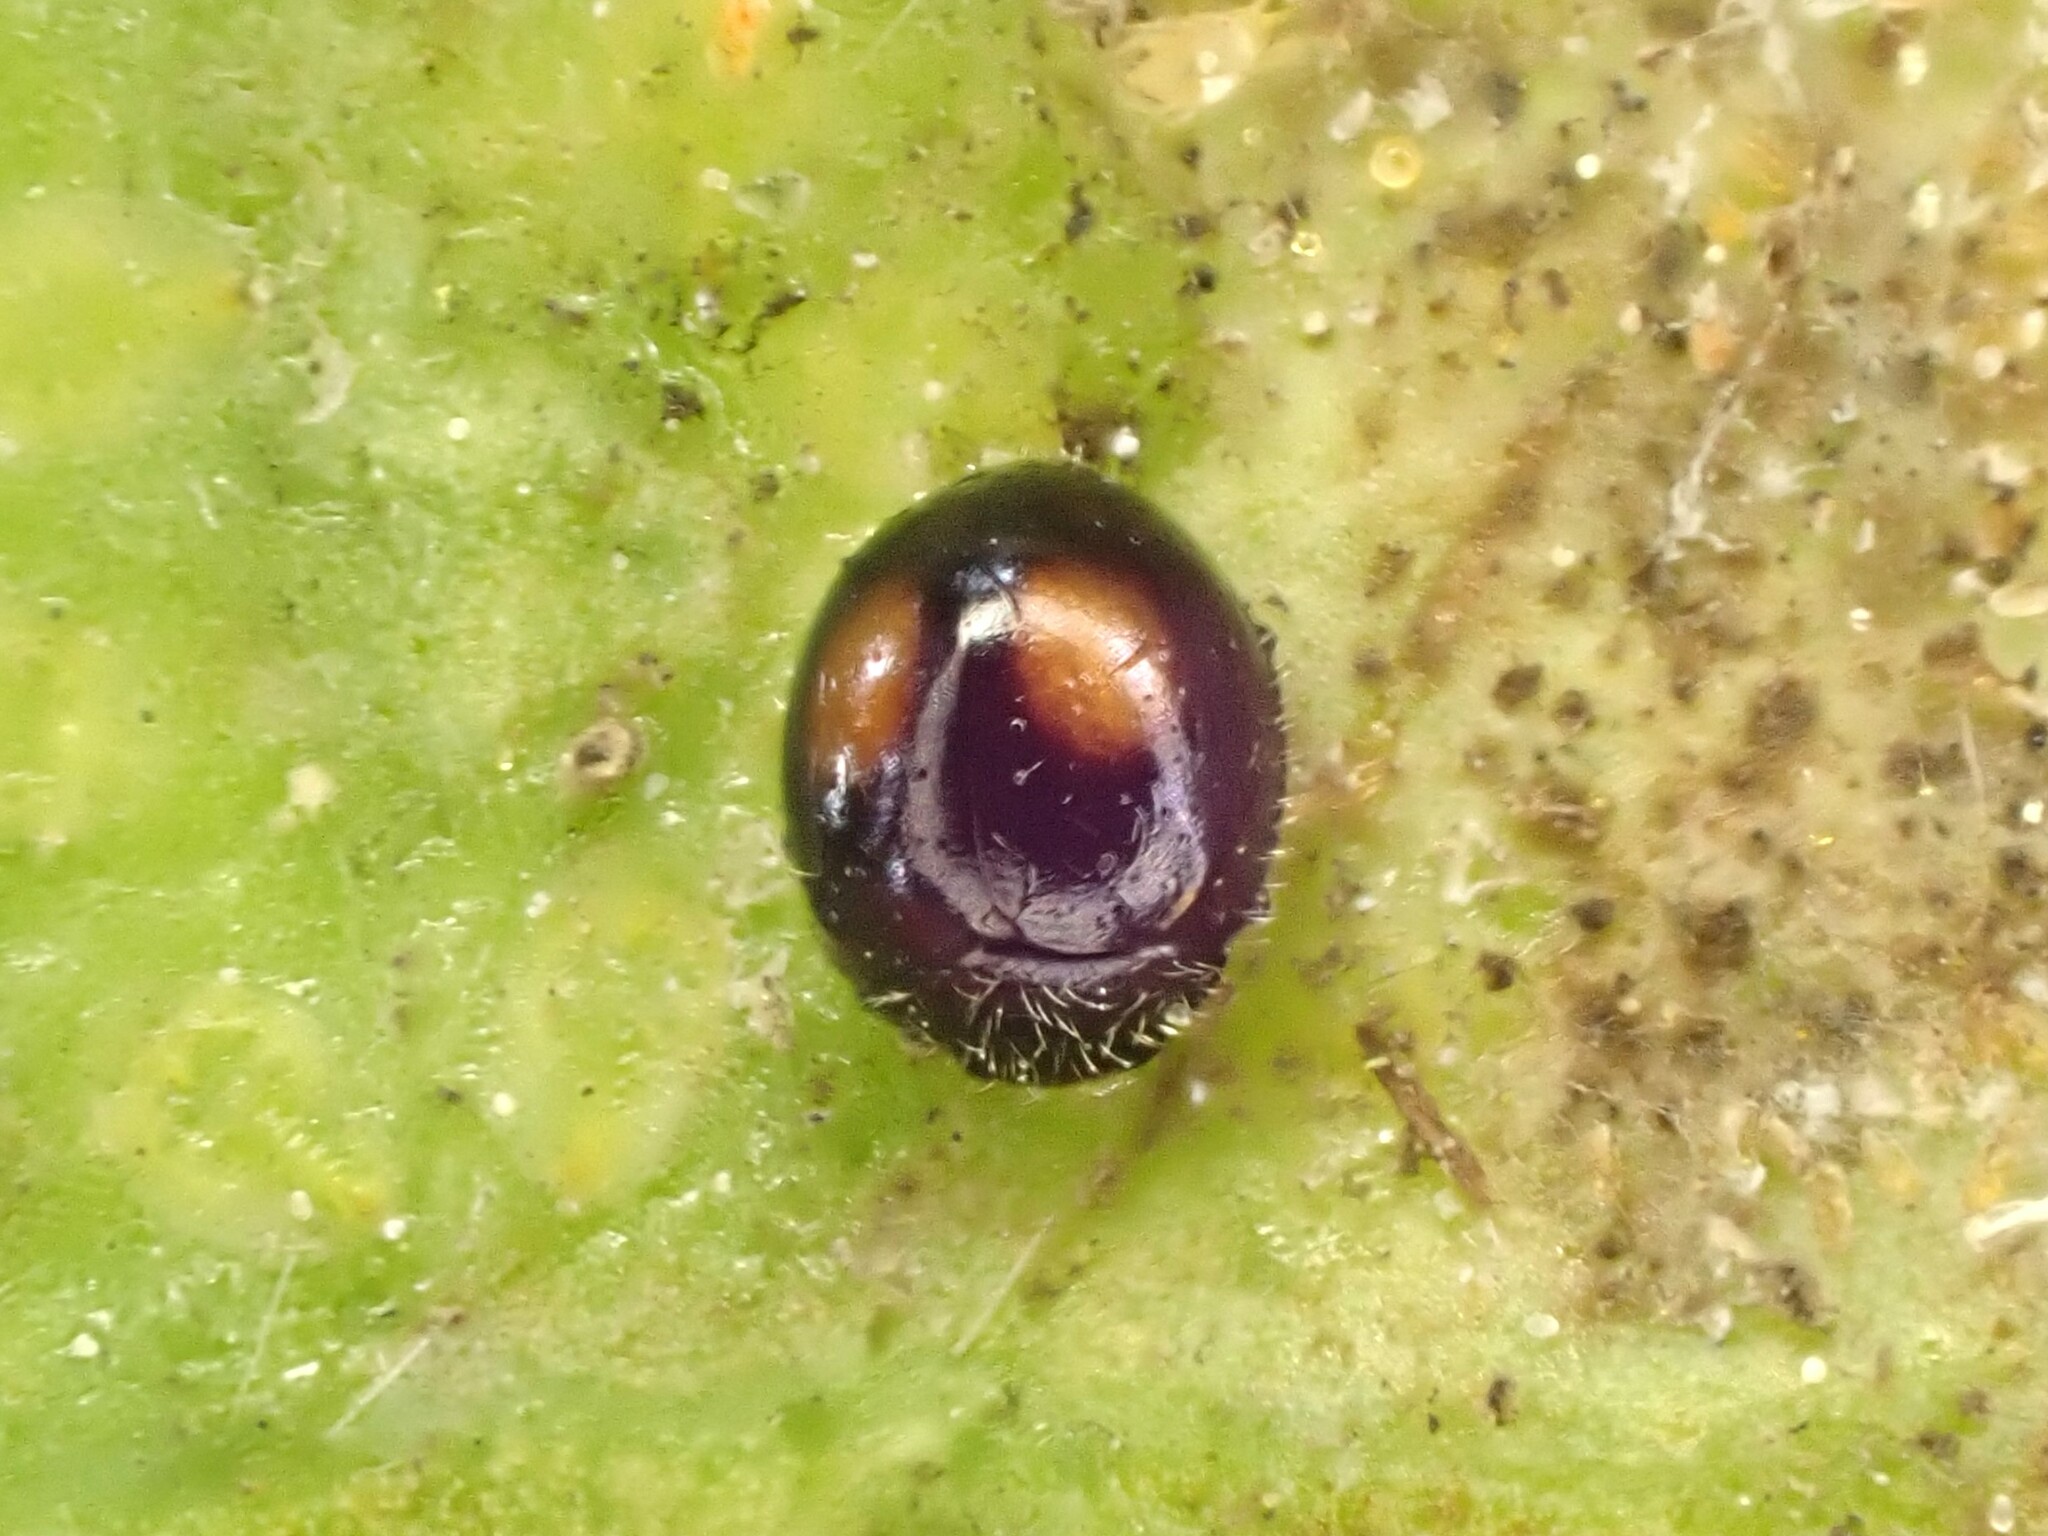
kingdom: Animalia
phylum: Arthropoda
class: Insecta
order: Coleoptera
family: Coccinellidae
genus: Serangium
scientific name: Serangium maculigerum
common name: Lady beetle
